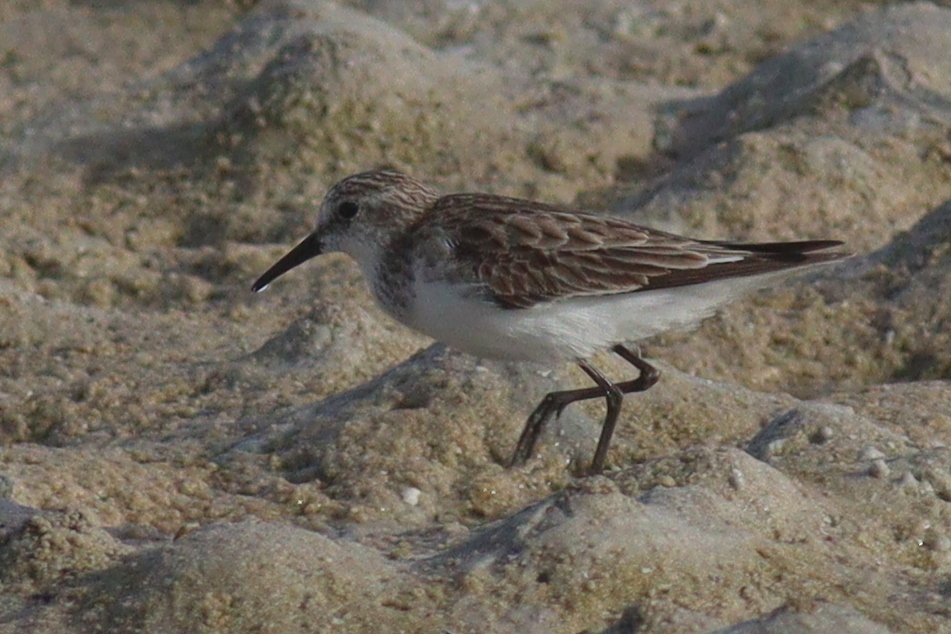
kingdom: Animalia
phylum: Chordata
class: Aves
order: Charadriiformes
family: Scolopacidae
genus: Calidris
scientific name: Calidris minuta
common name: Little stint
